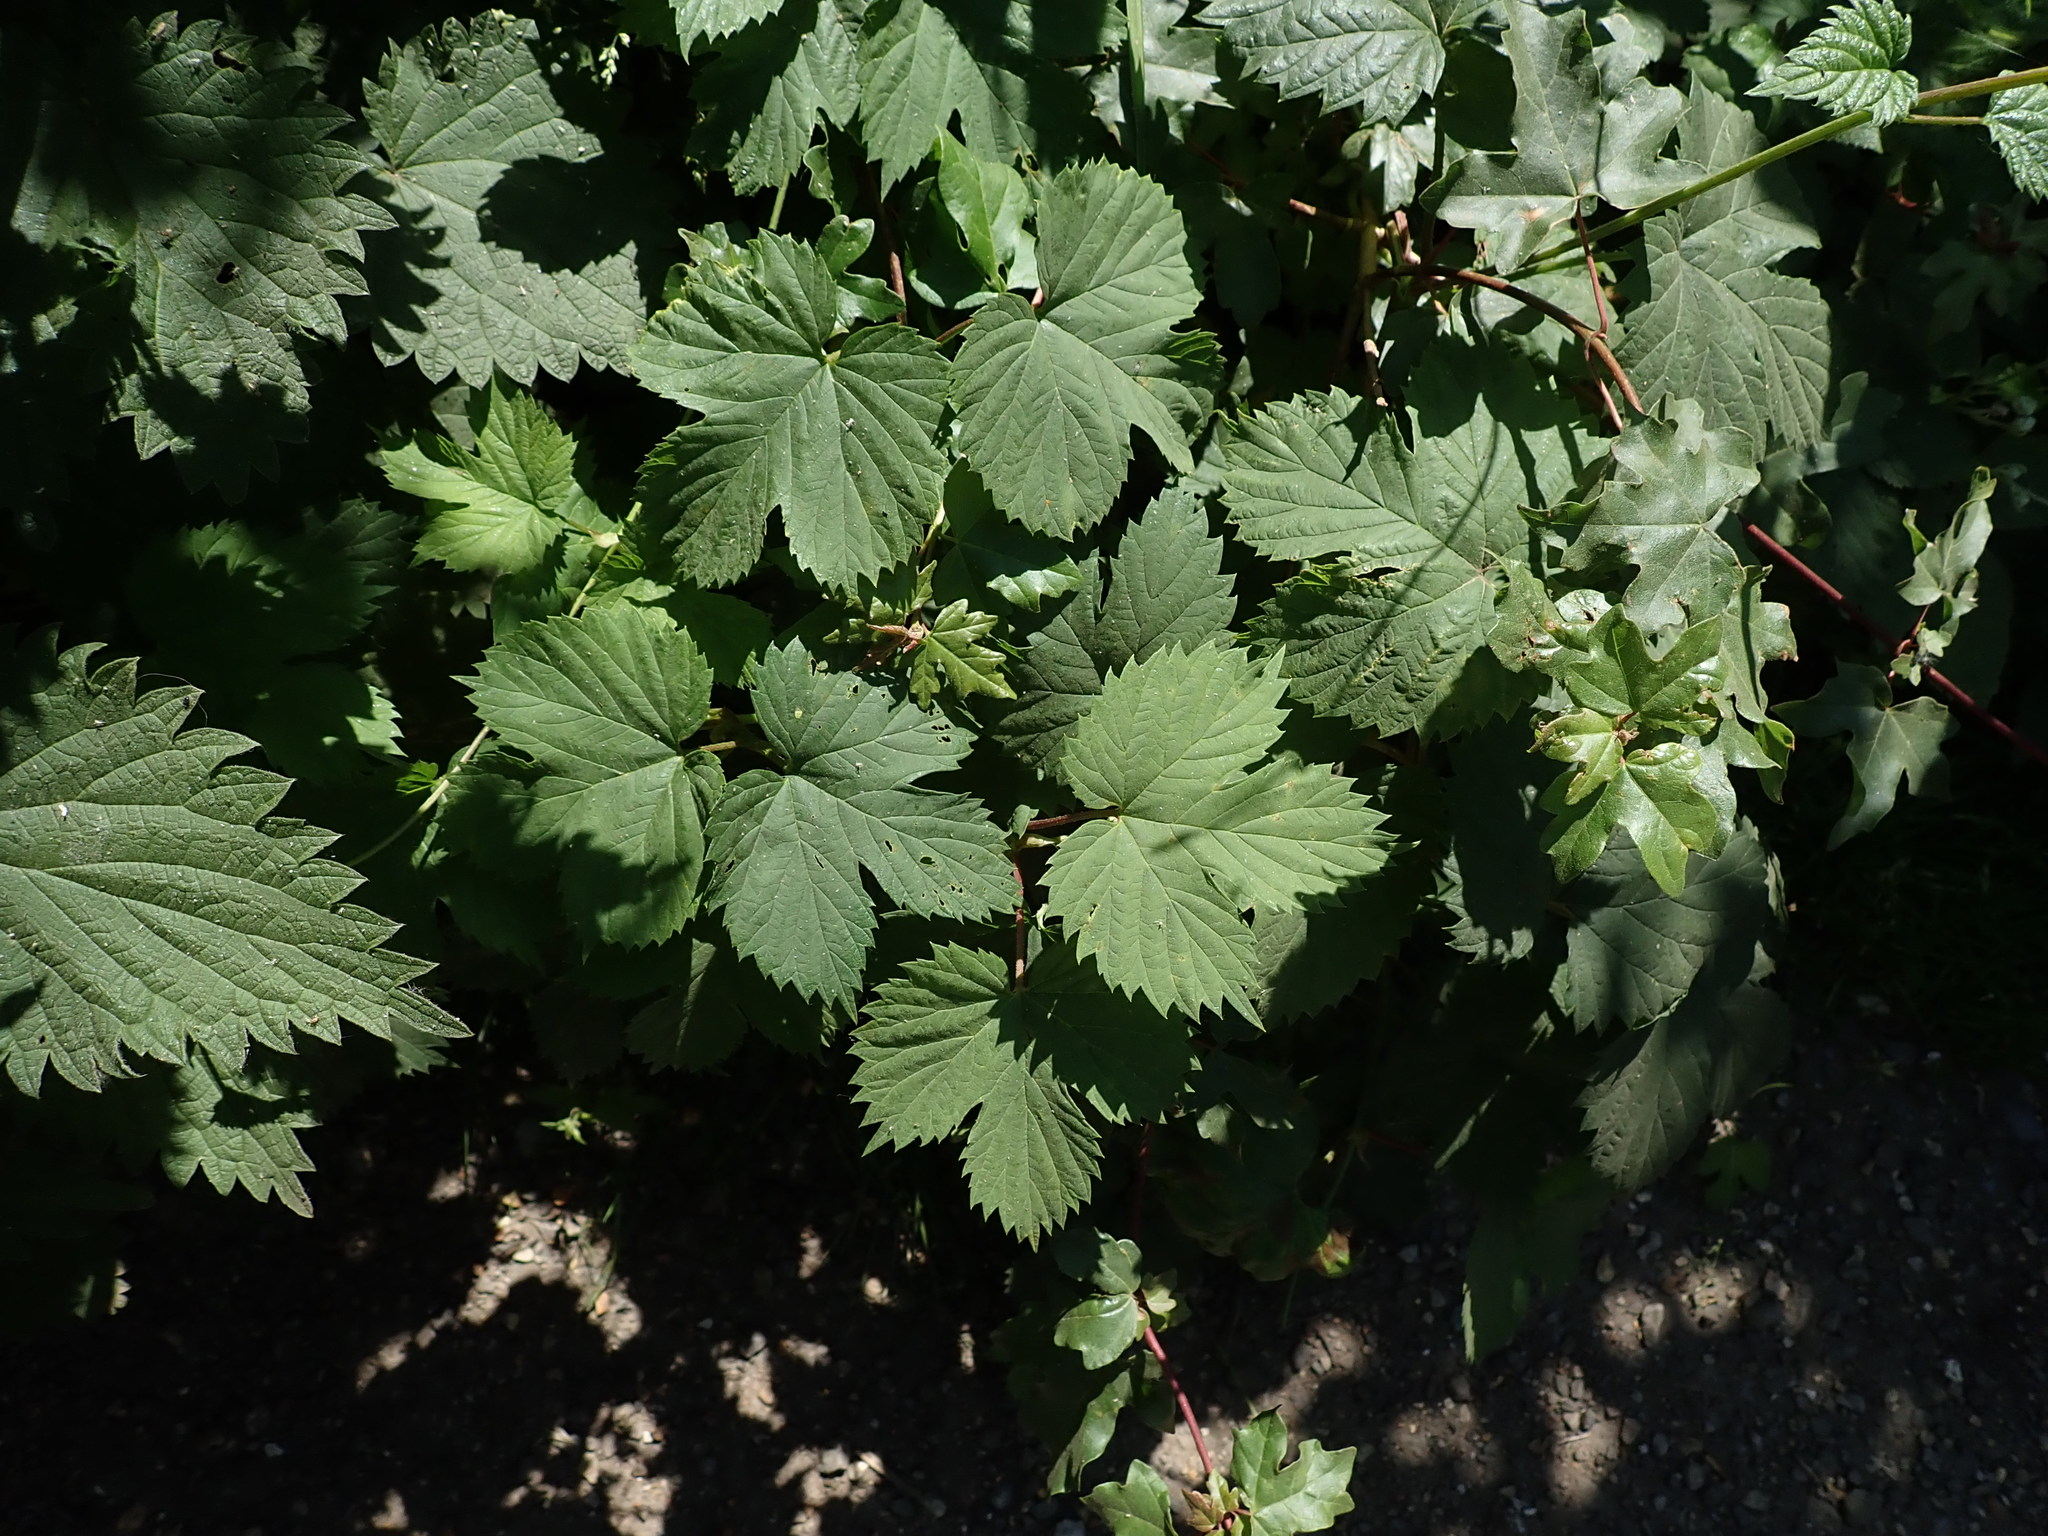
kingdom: Plantae
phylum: Tracheophyta
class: Magnoliopsida
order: Rosales
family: Cannabaceae
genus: Humulus
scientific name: Humulus lupulus
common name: Hop
